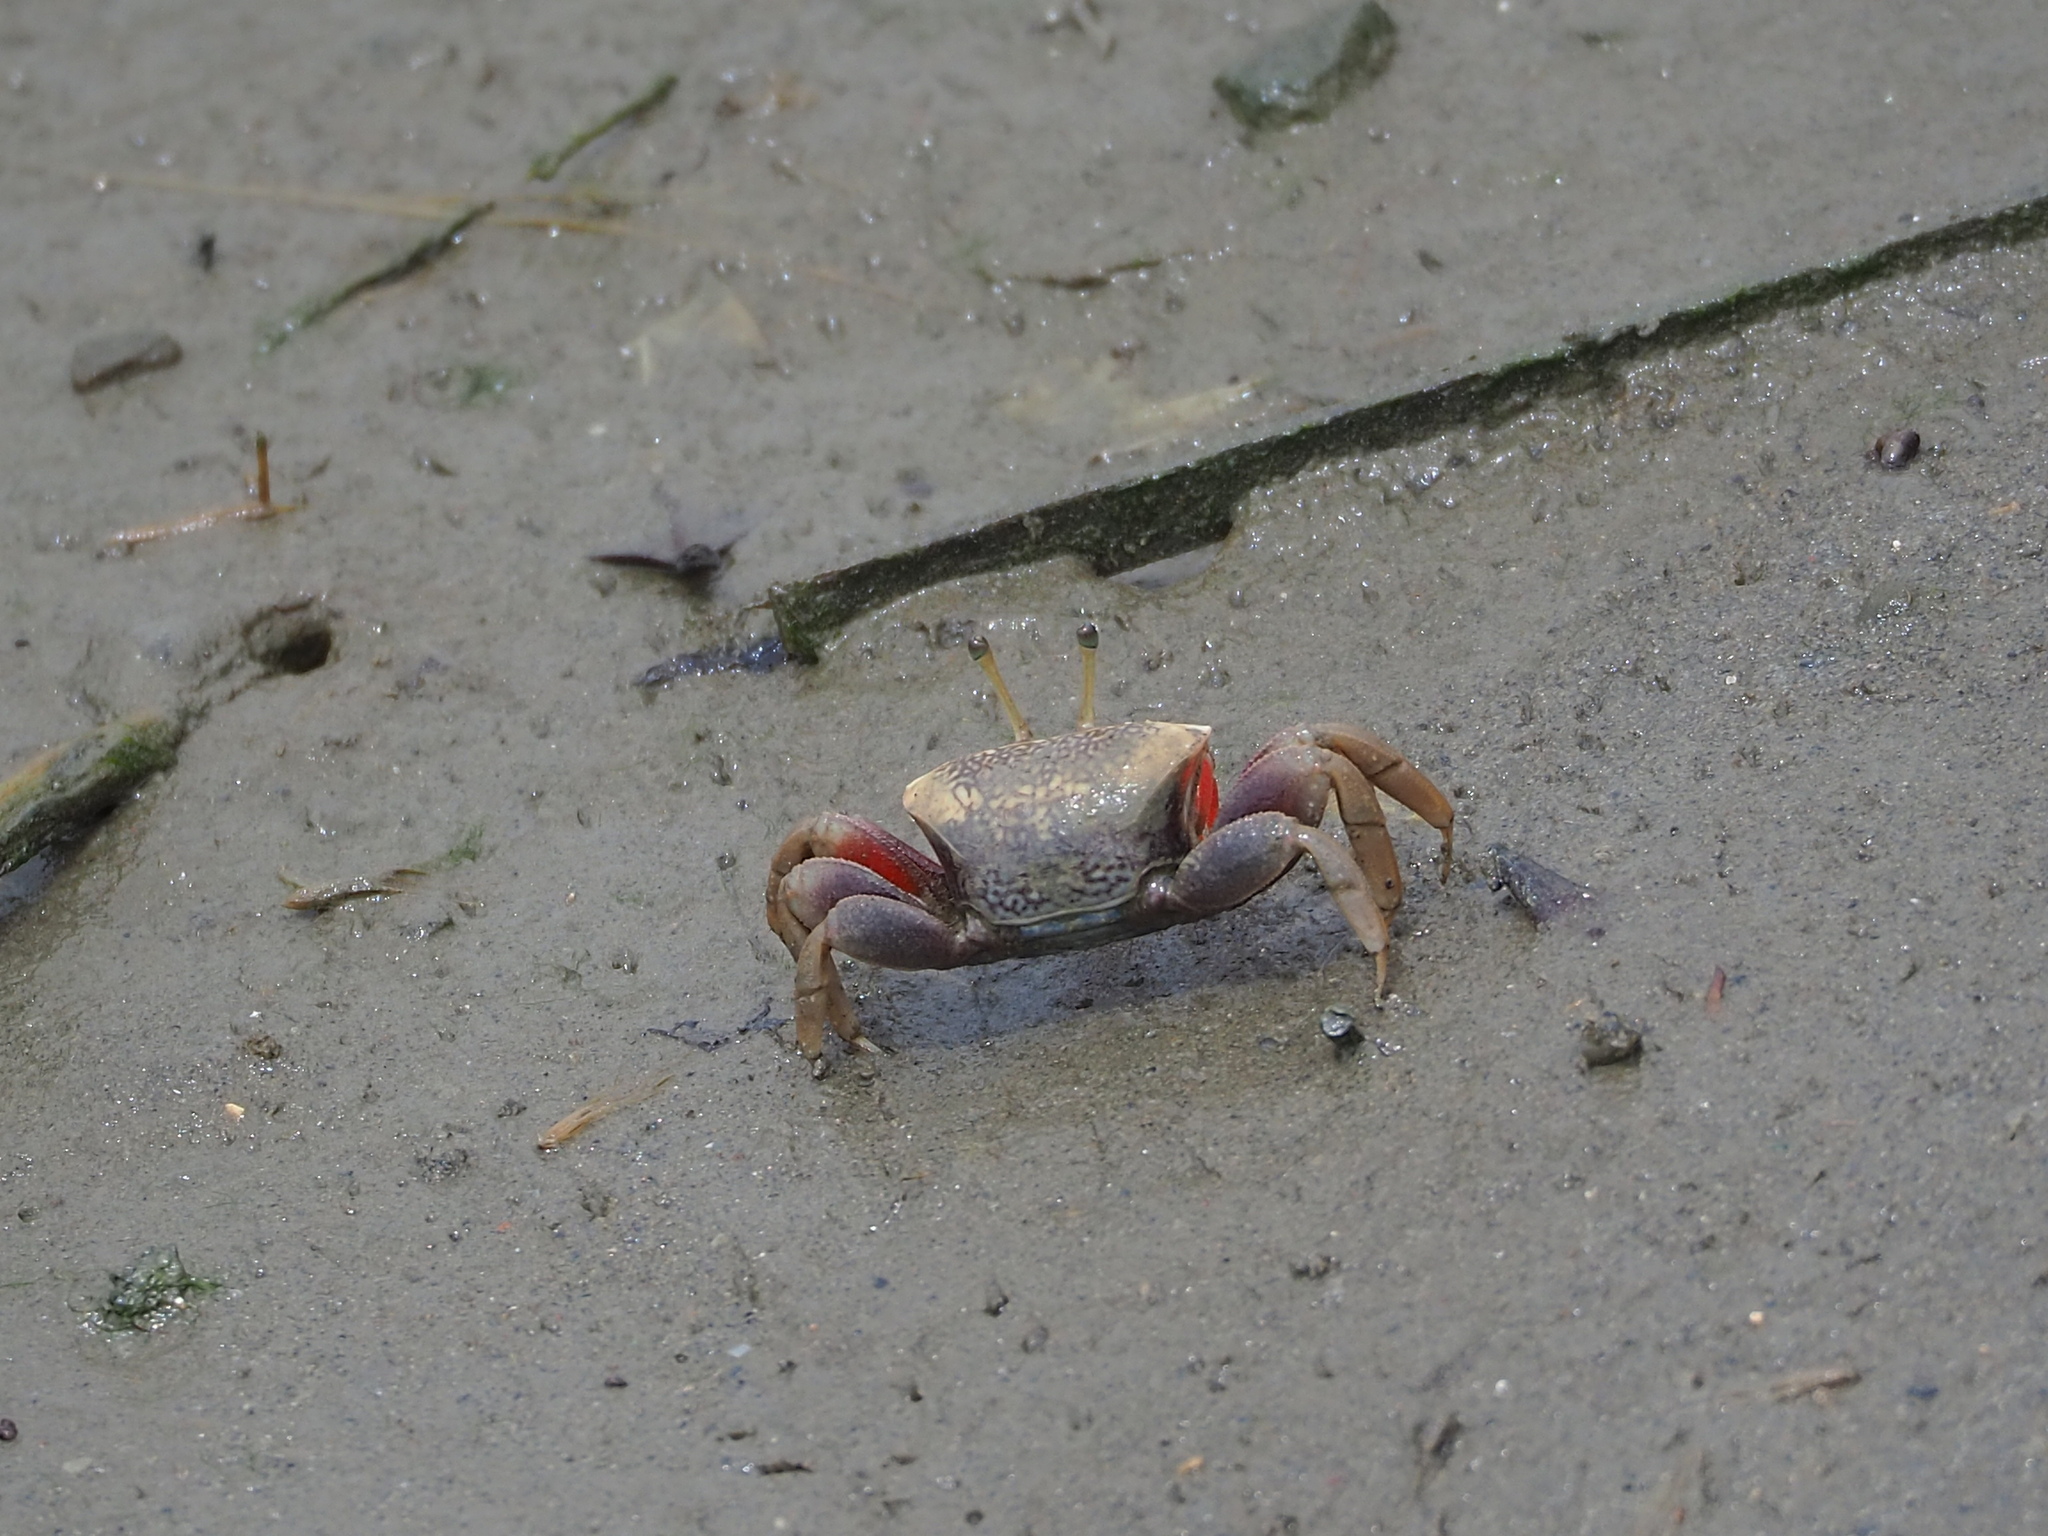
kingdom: Animalia
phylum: Arthropoda
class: Malacostraca
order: Decapoda
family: Ocypodidae
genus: Tubuca
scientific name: Tubuca arcuata
